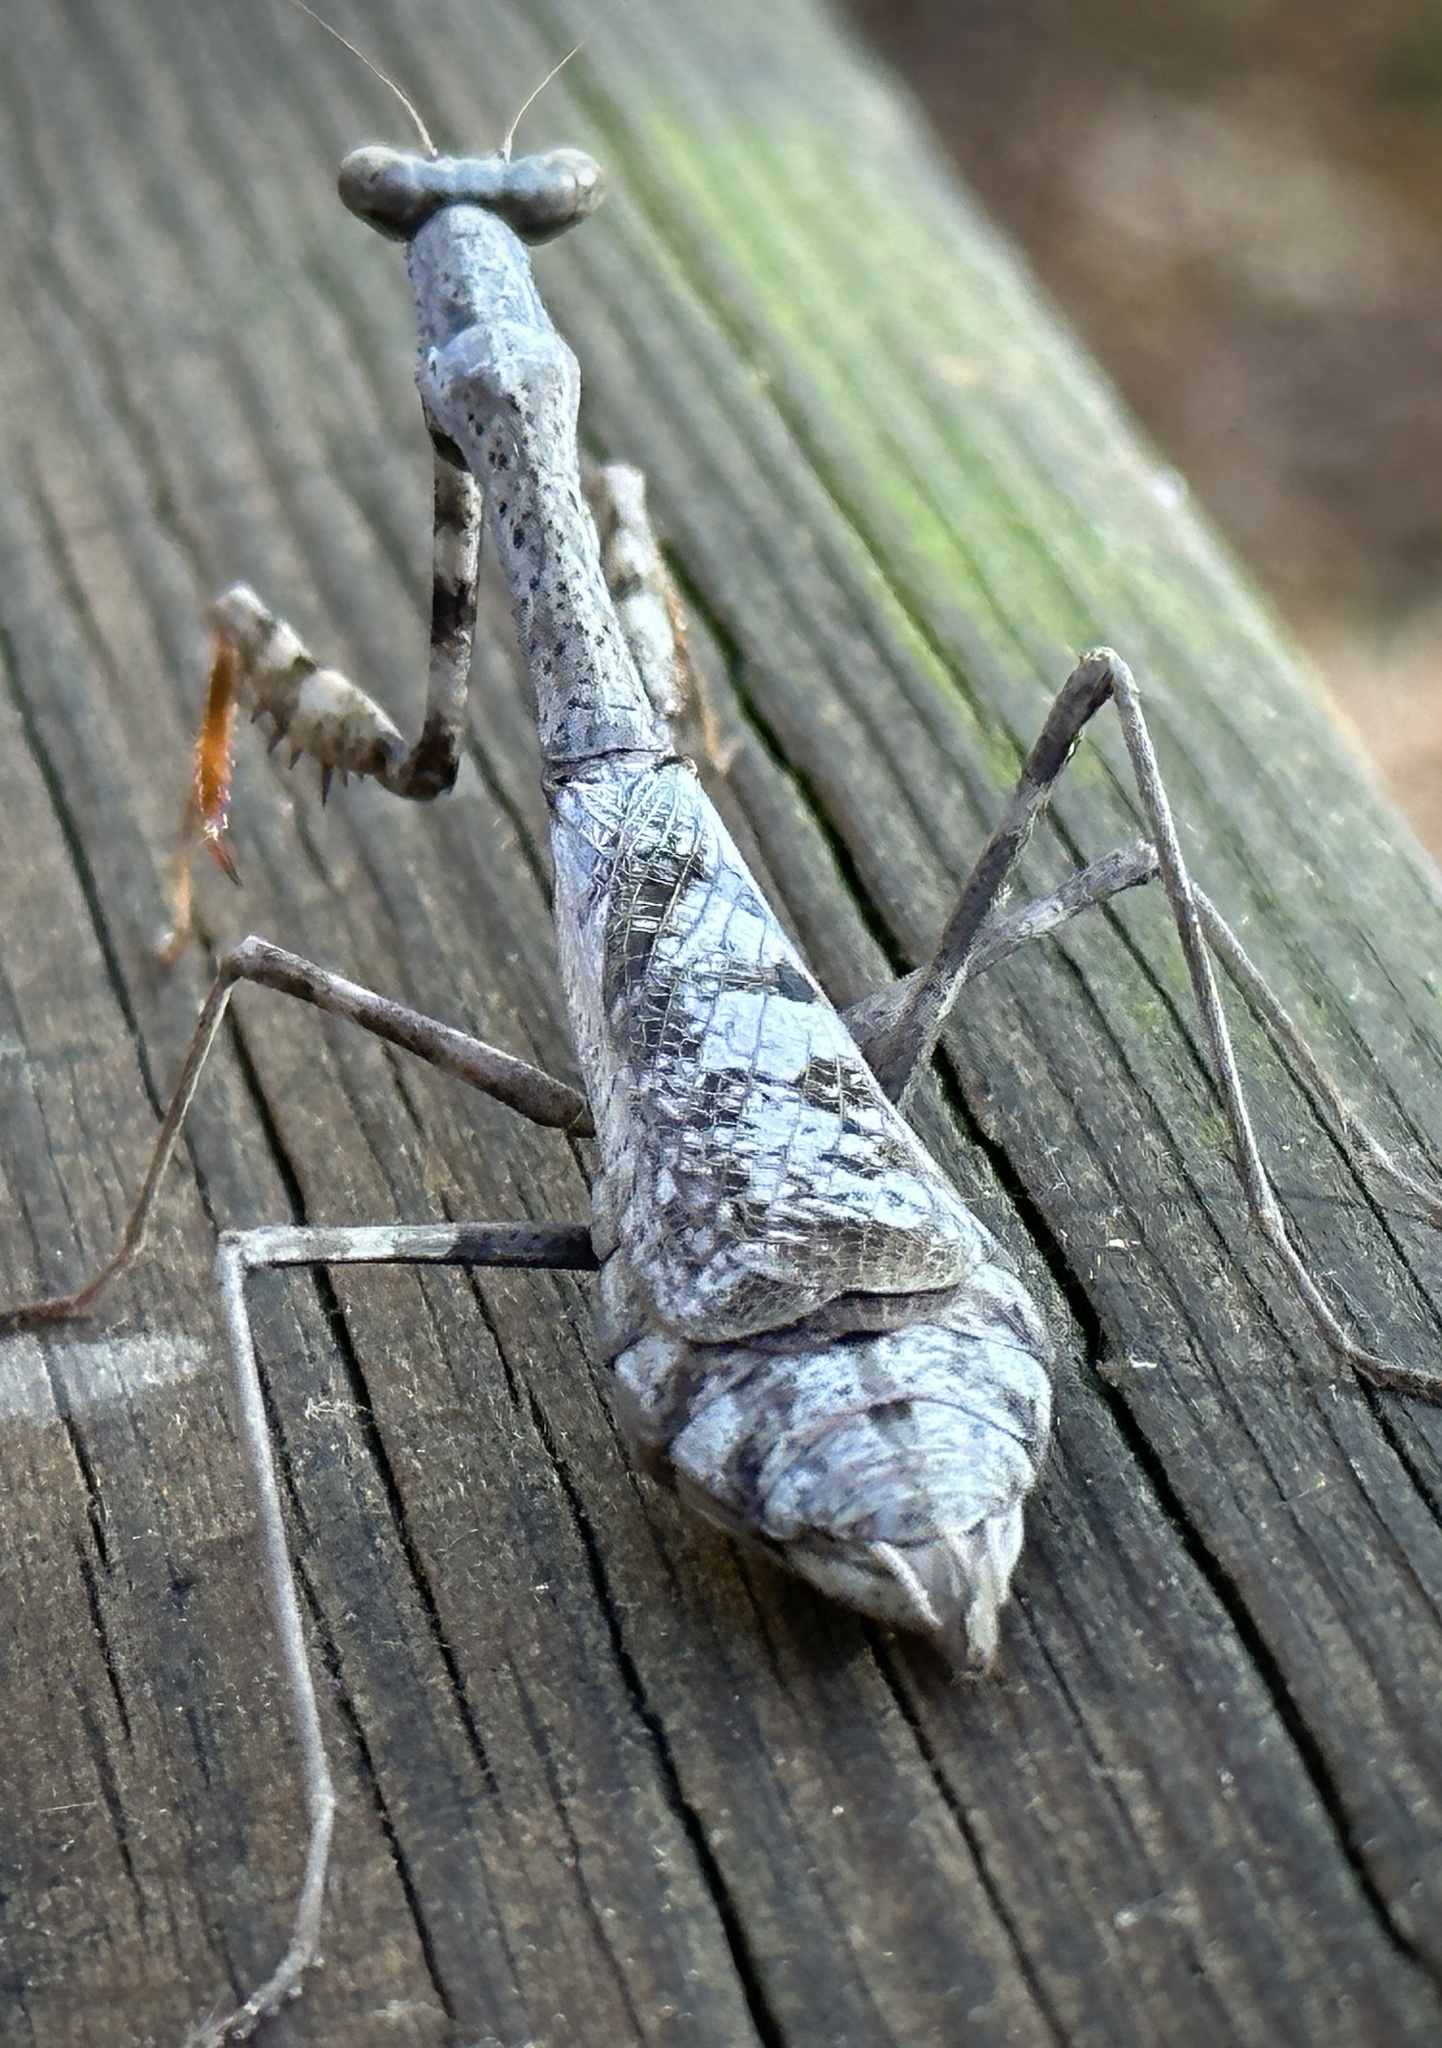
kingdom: Animalia
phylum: Arthropoda
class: Insecta
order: Mantodea
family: Mantidae
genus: Stagmomantis
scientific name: Stagmomantis carolina
